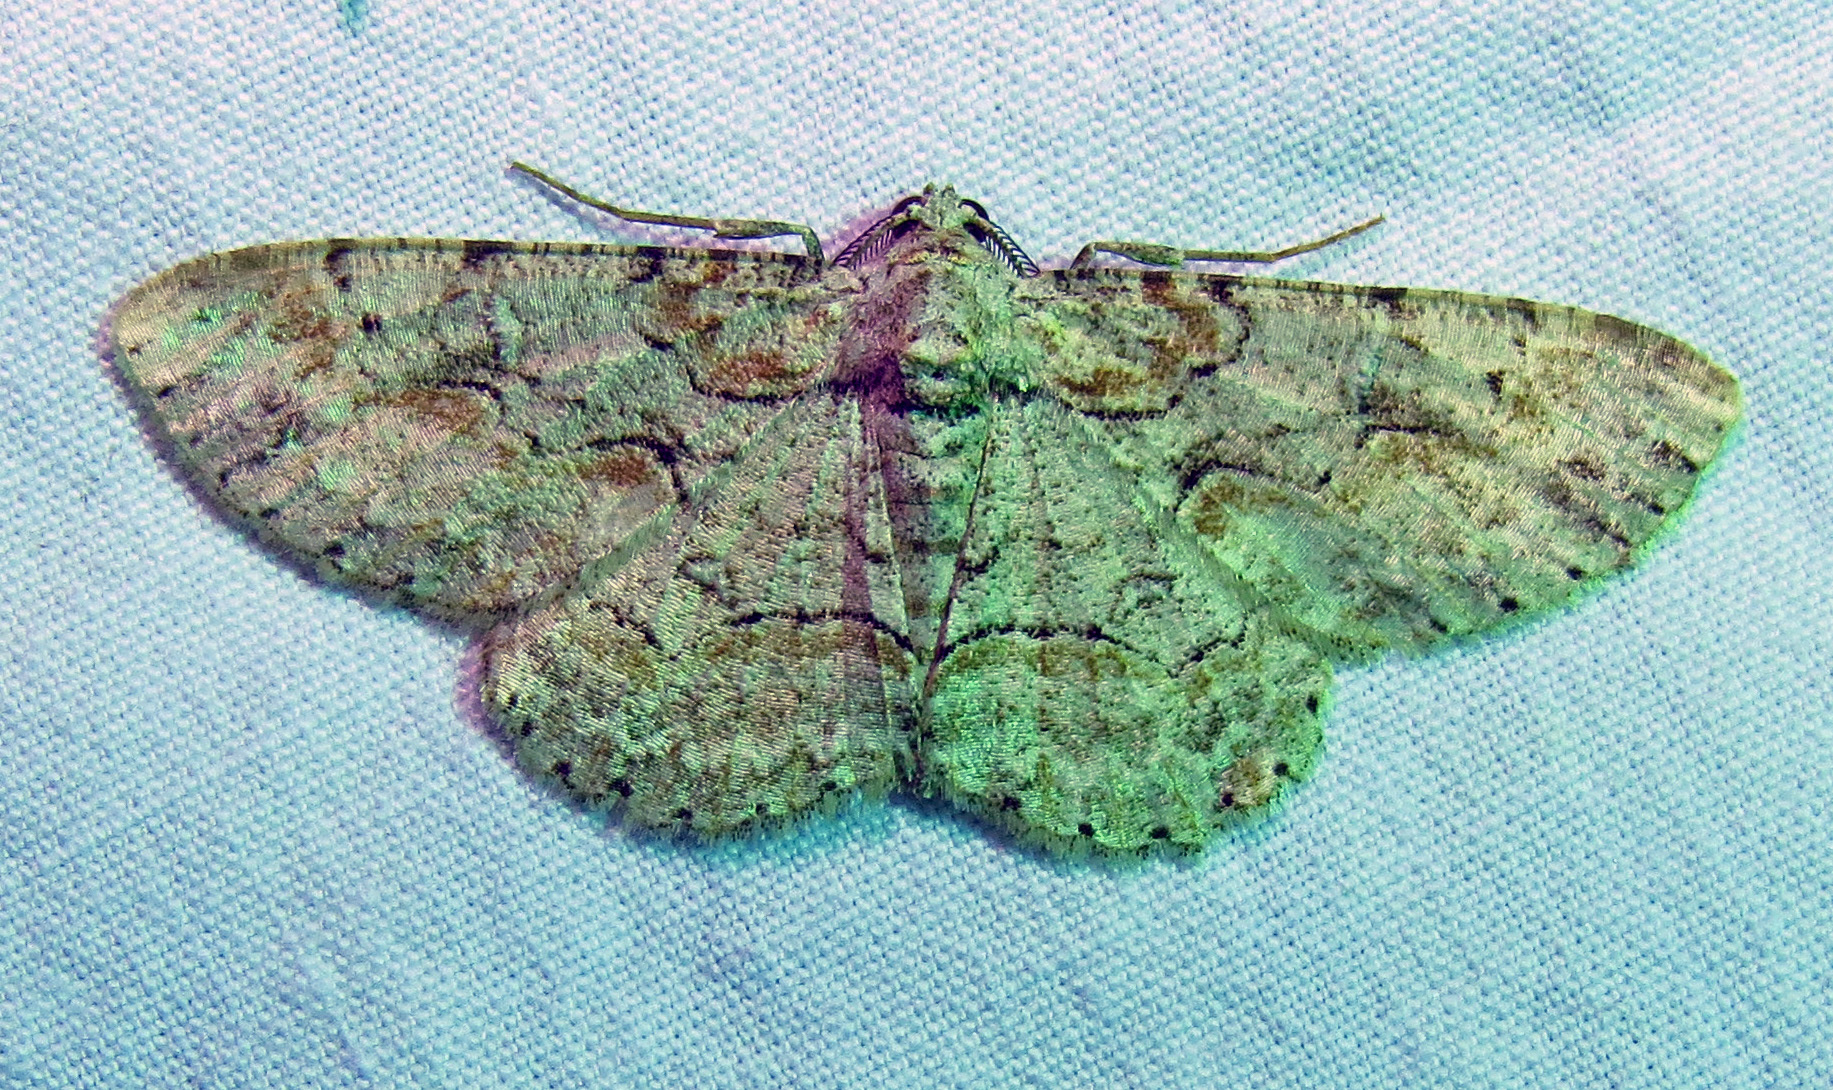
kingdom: Animalia
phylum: Arthropoda
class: Insecta
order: Lepidoptera
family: Geometridae
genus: Iridopsis
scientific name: Iridopsis defectaria
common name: Brown-shaded gray
